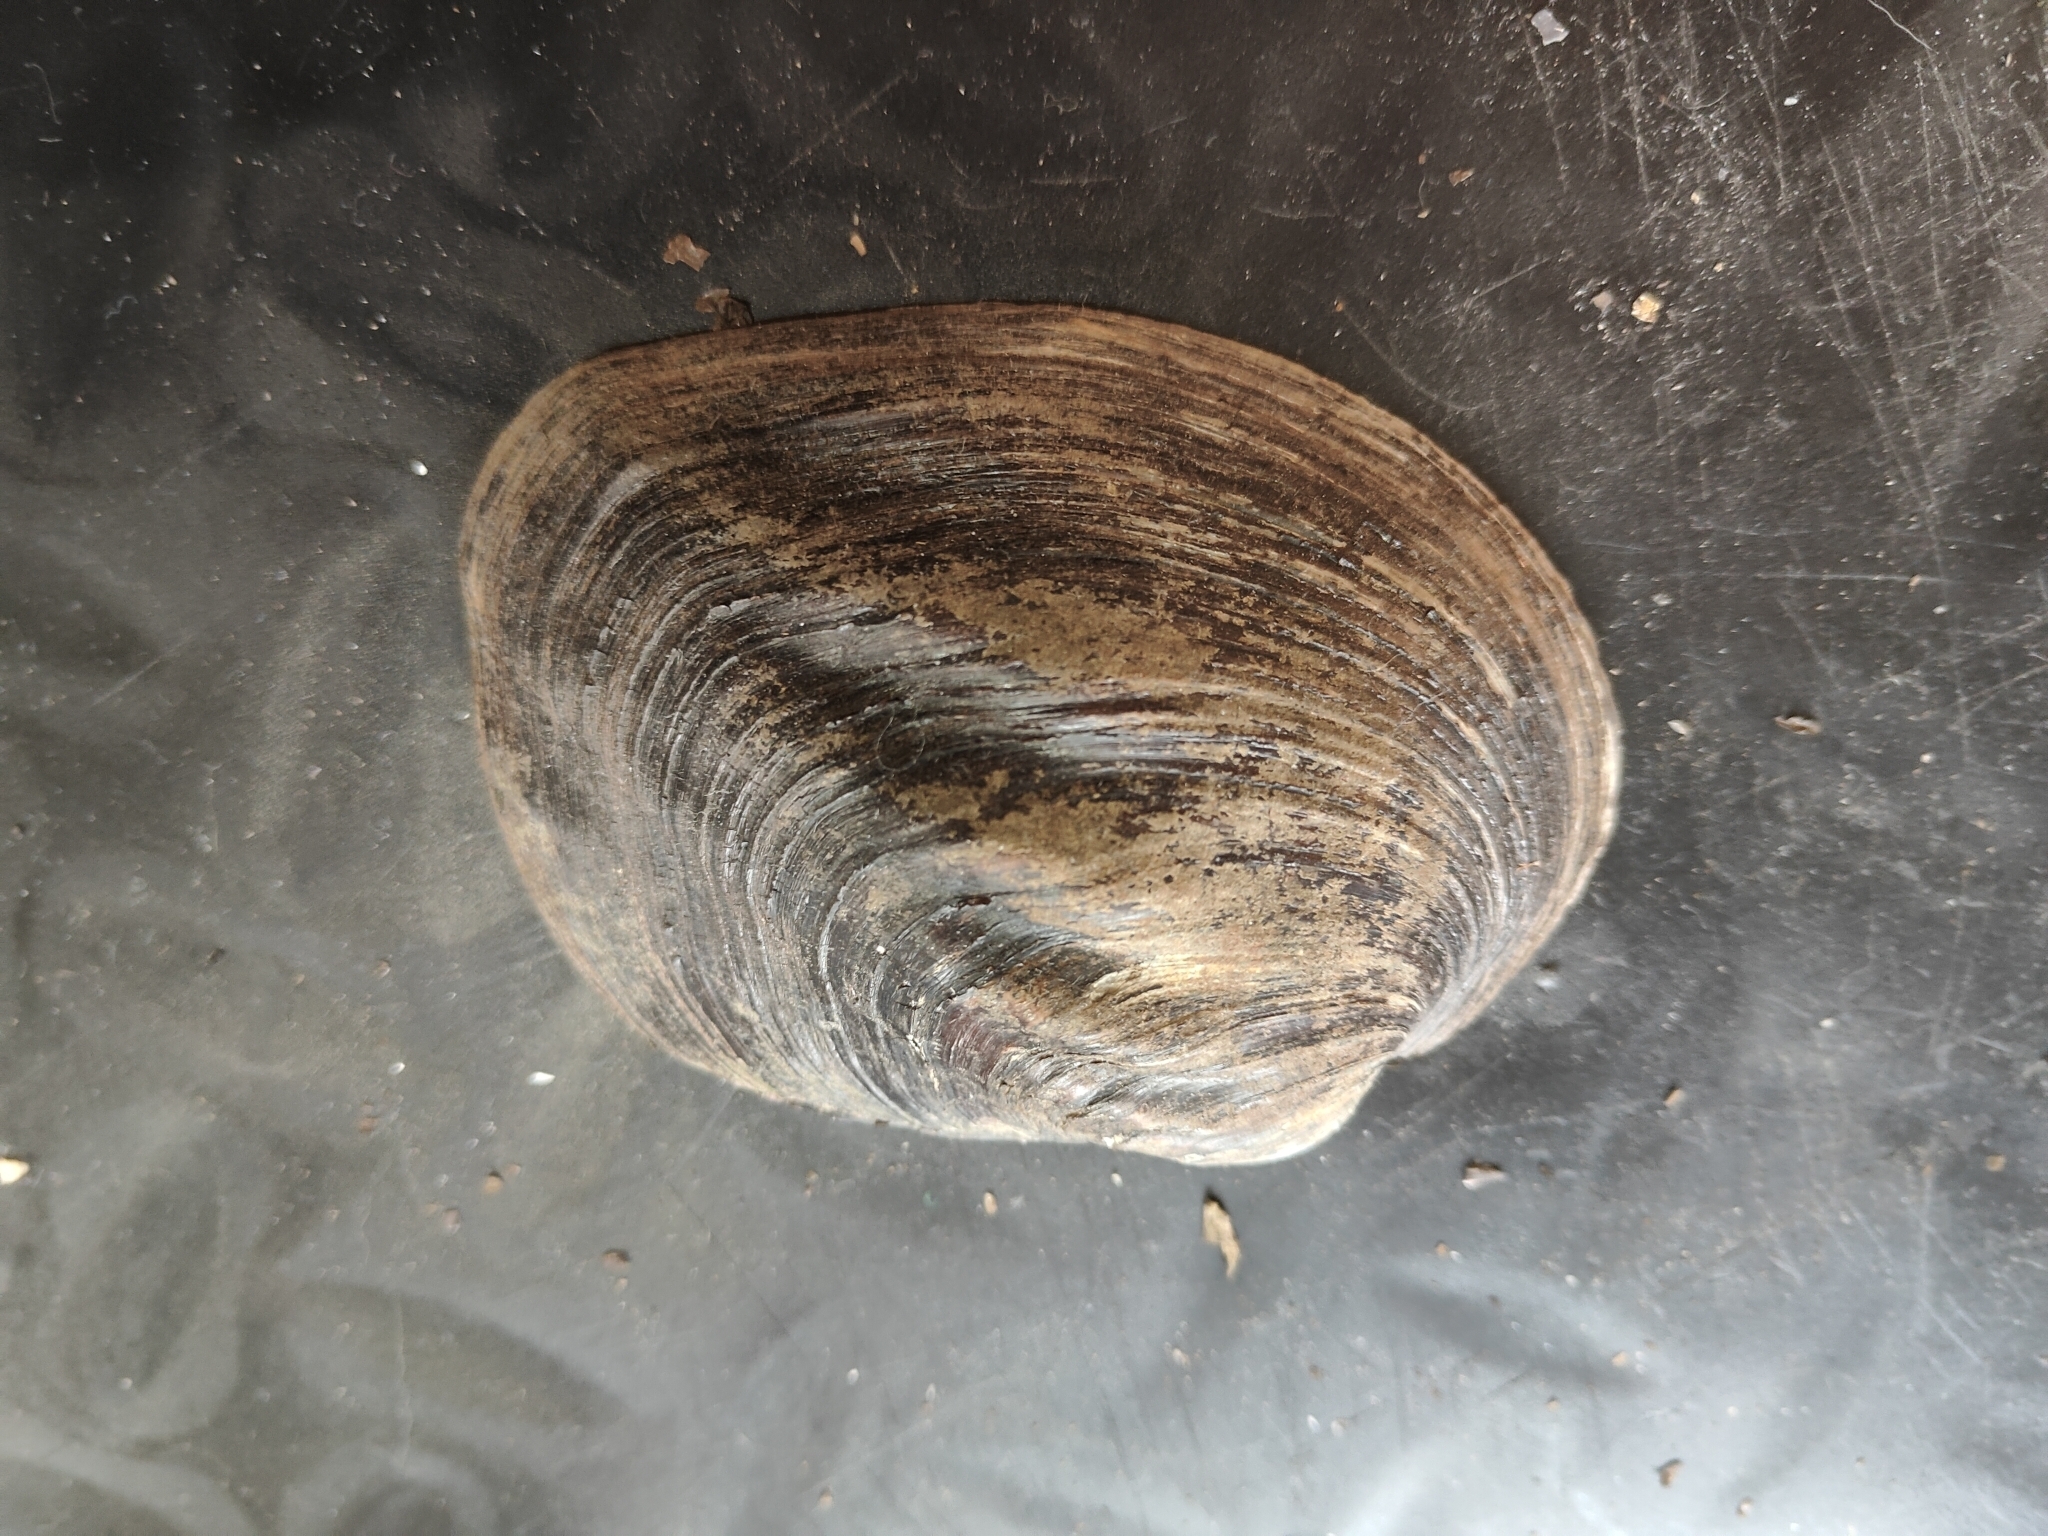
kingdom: Animalia
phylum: Mollusca
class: Bivalvia
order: Unionida
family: Unionidae
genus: Amblema
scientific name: Amblema plicata
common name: Threeridge
